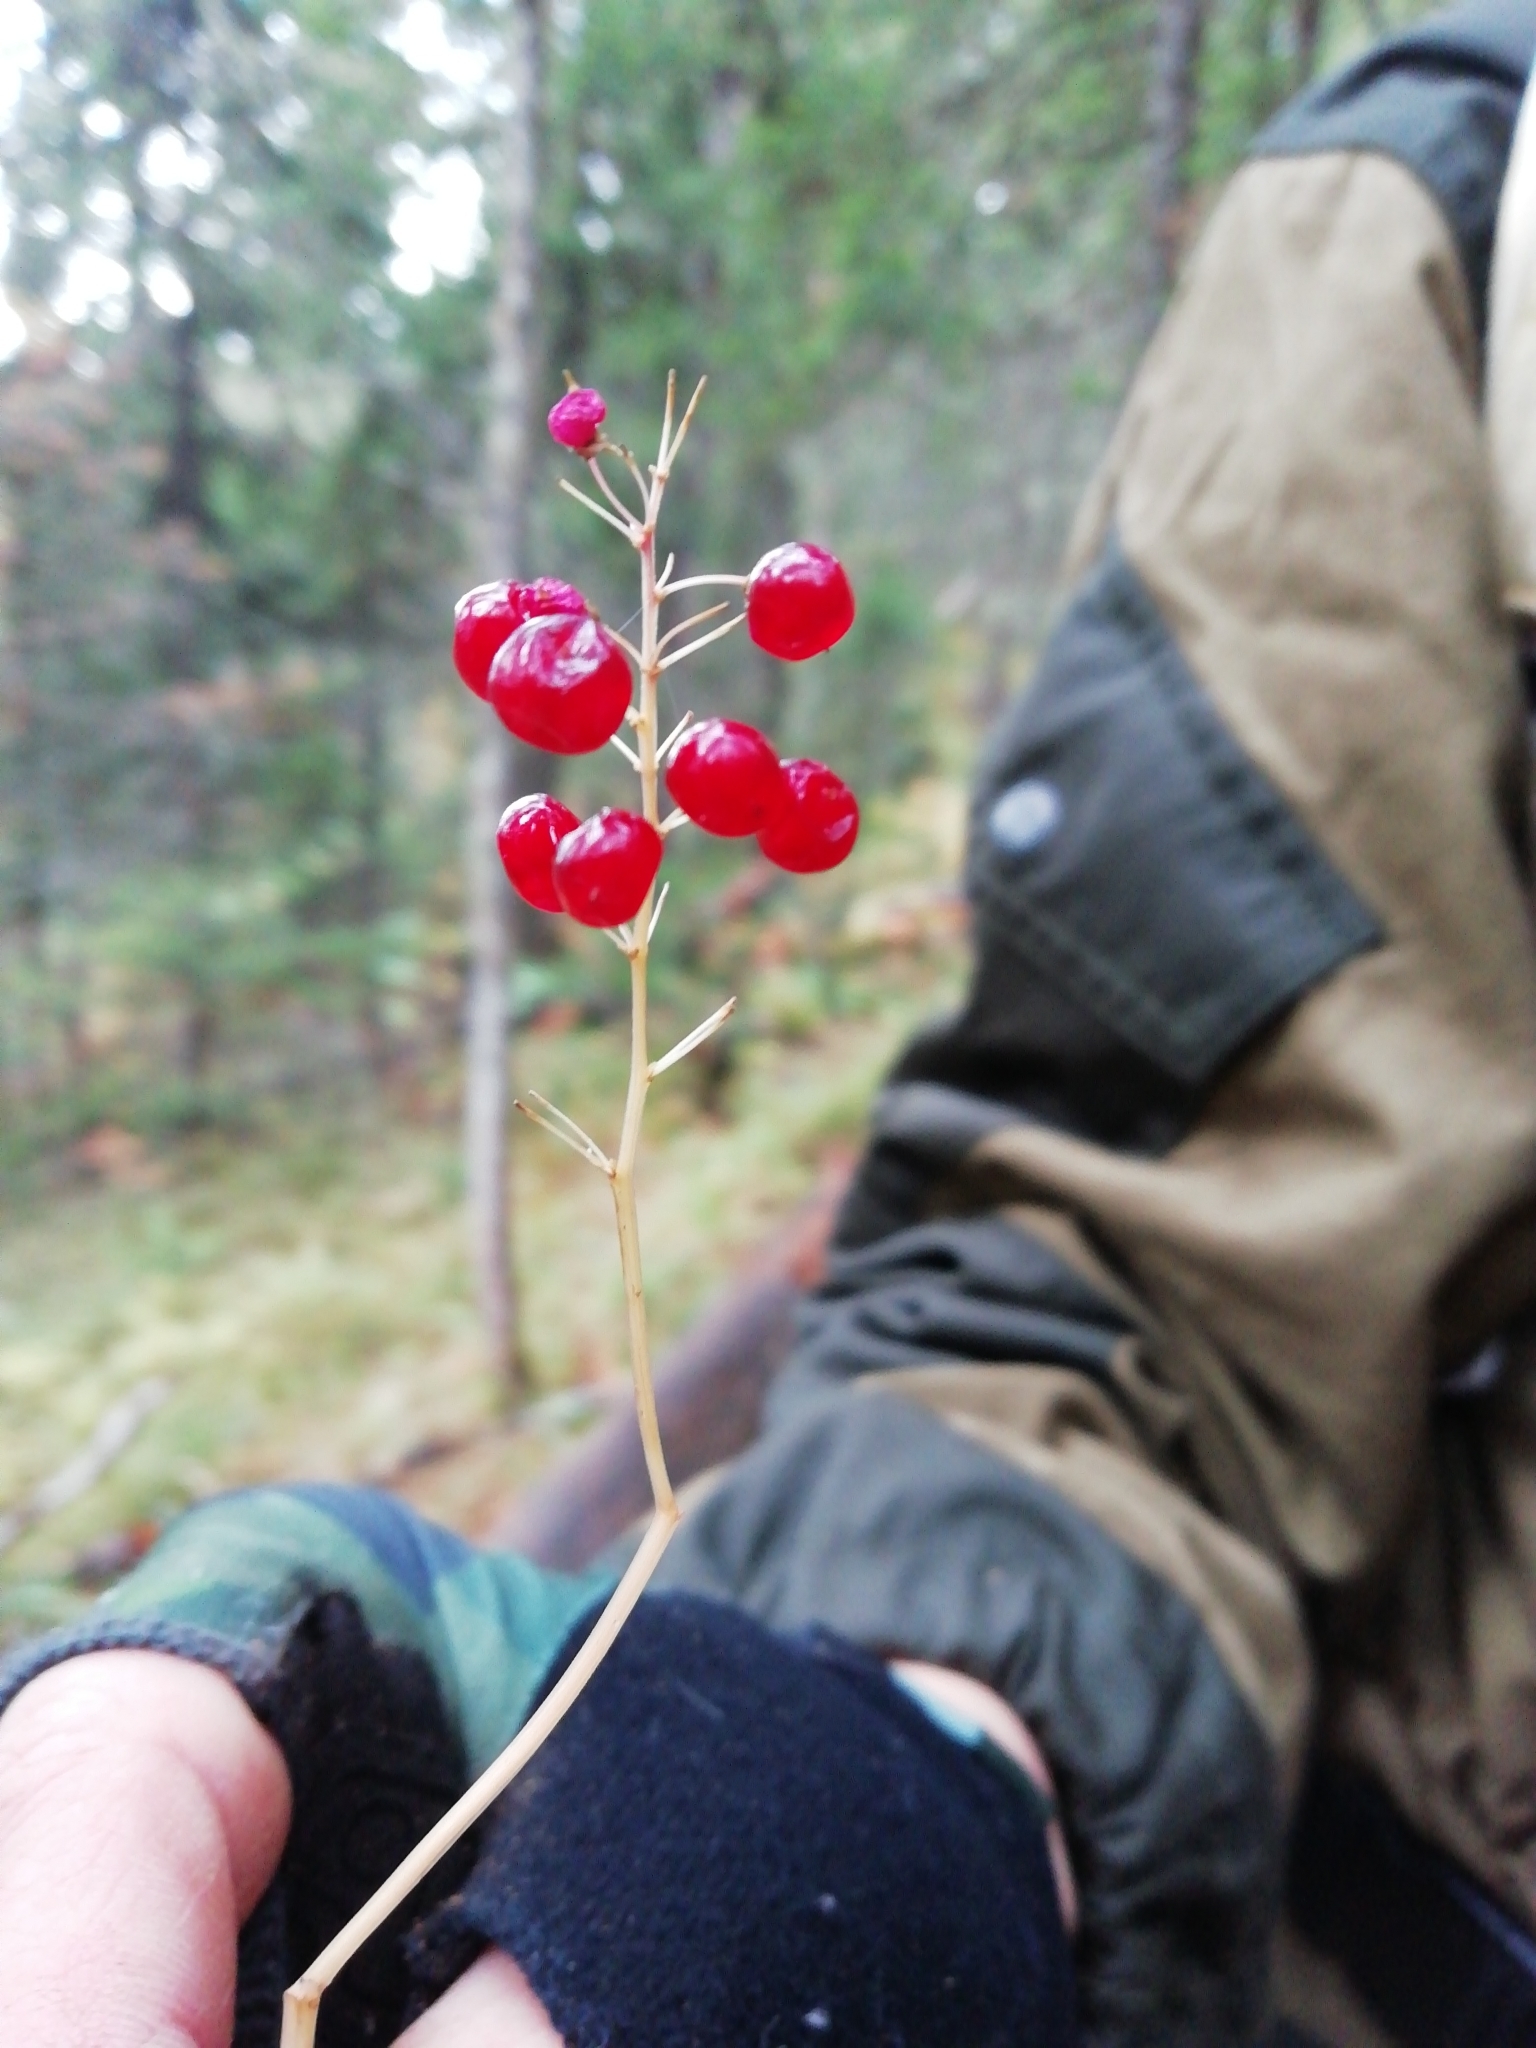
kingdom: Plantae
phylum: Tracheophyta
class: Liliopsida
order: Asparagales
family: Asparagaceae
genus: Maianthemum
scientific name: Maianthemum bifolium
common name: May lily
